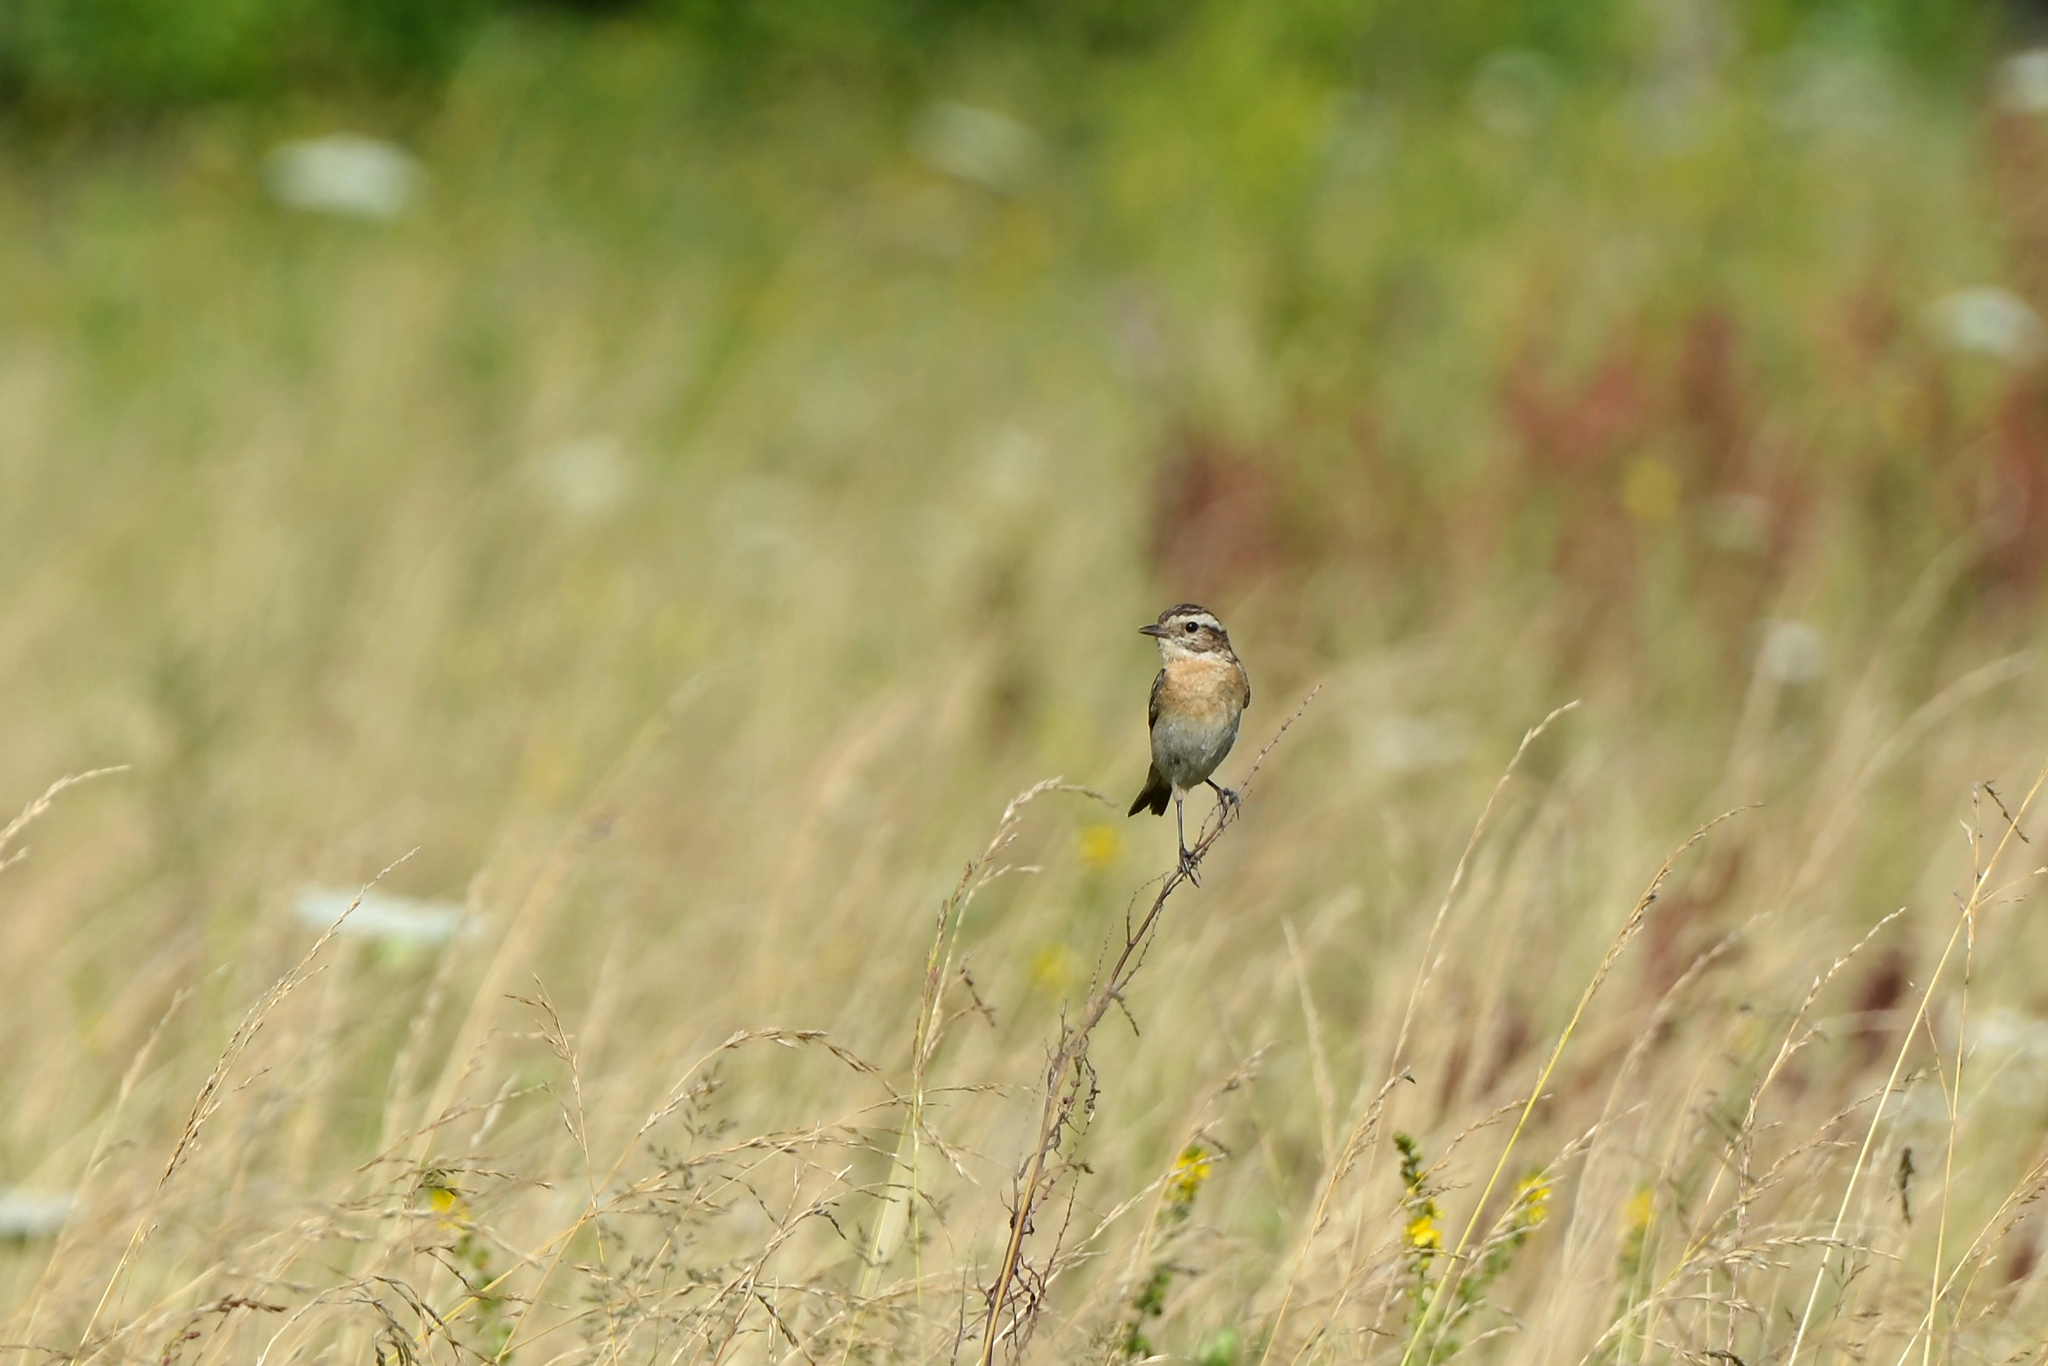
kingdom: Animalia
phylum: Chordata
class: Aves
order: Passeriformes
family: Muscicapidae
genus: Saxicola
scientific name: Saxicola rubetra
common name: Whinchat
